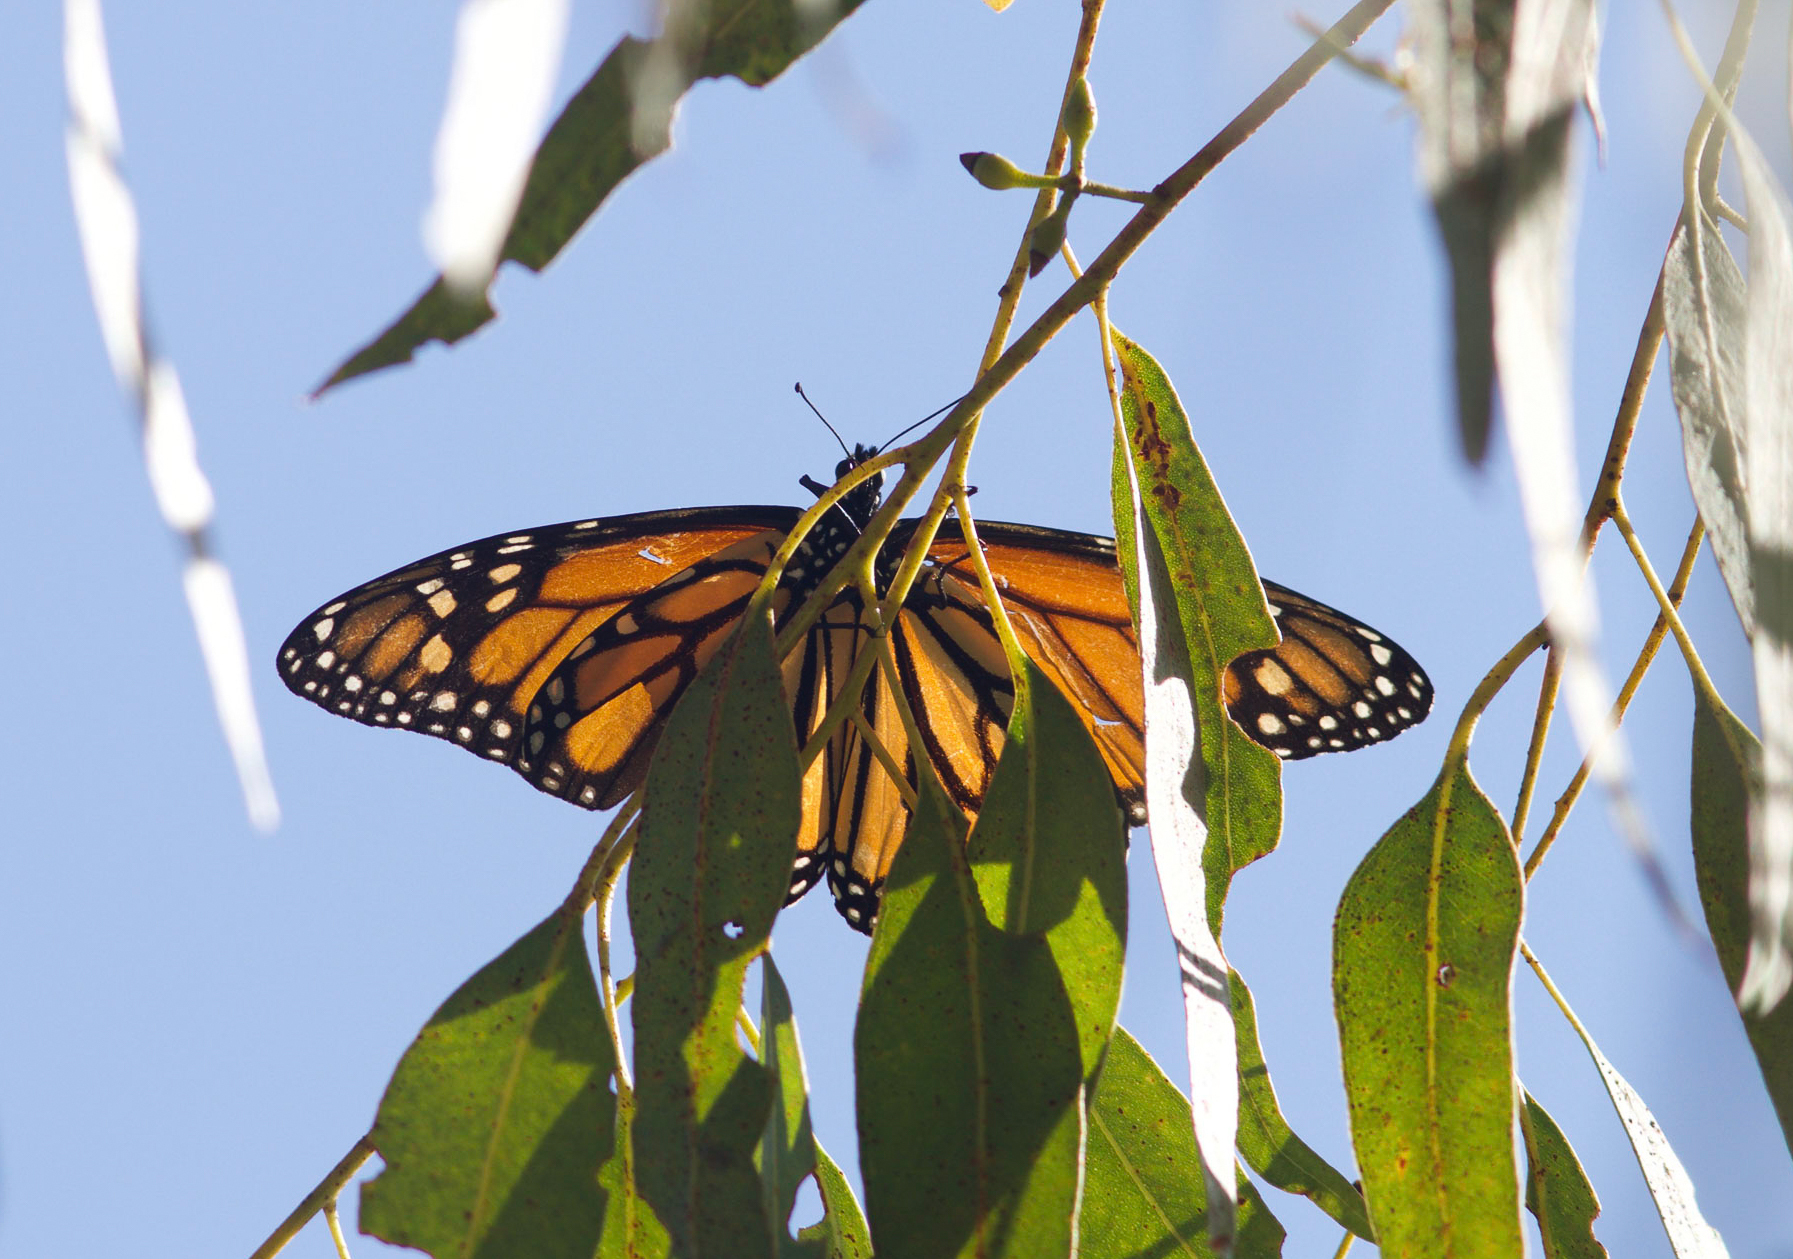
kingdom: Animalia
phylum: Arthropoda
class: Insecta
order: Lepidoptera
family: Nymphalidae
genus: Danaus
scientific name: Danaus plexippus
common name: Monarch
